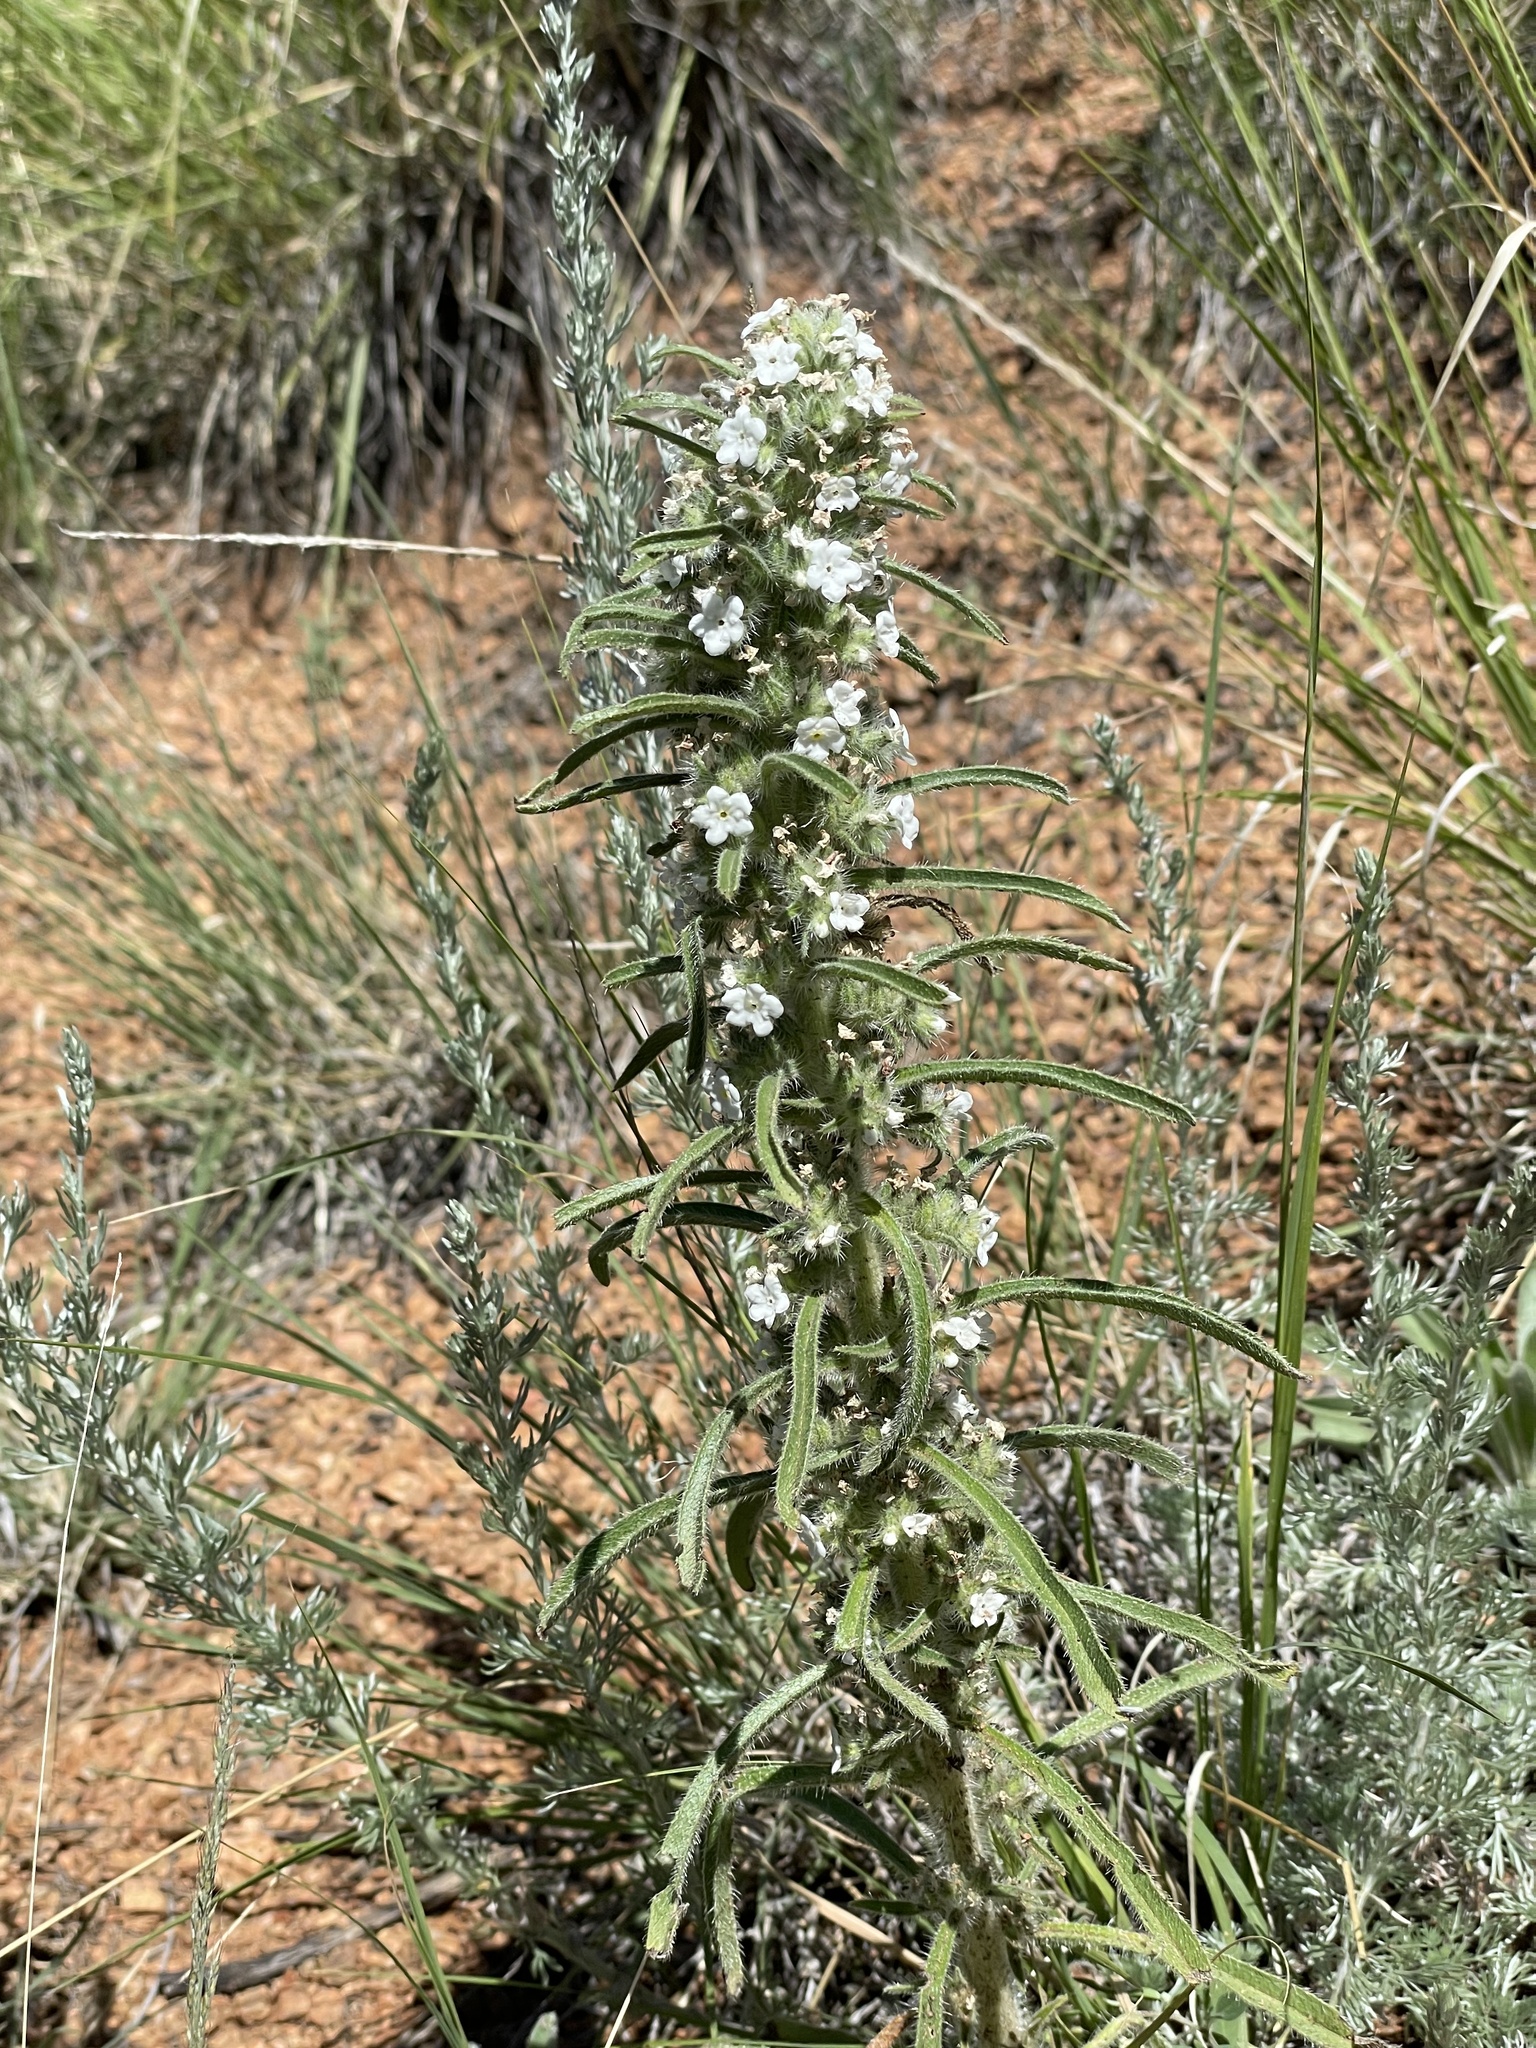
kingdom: Plantae
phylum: Tracheophyta
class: Magnoliopsida
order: Boraginales
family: Boraginaceae
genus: Oreocarya
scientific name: Oreocarya virgata
